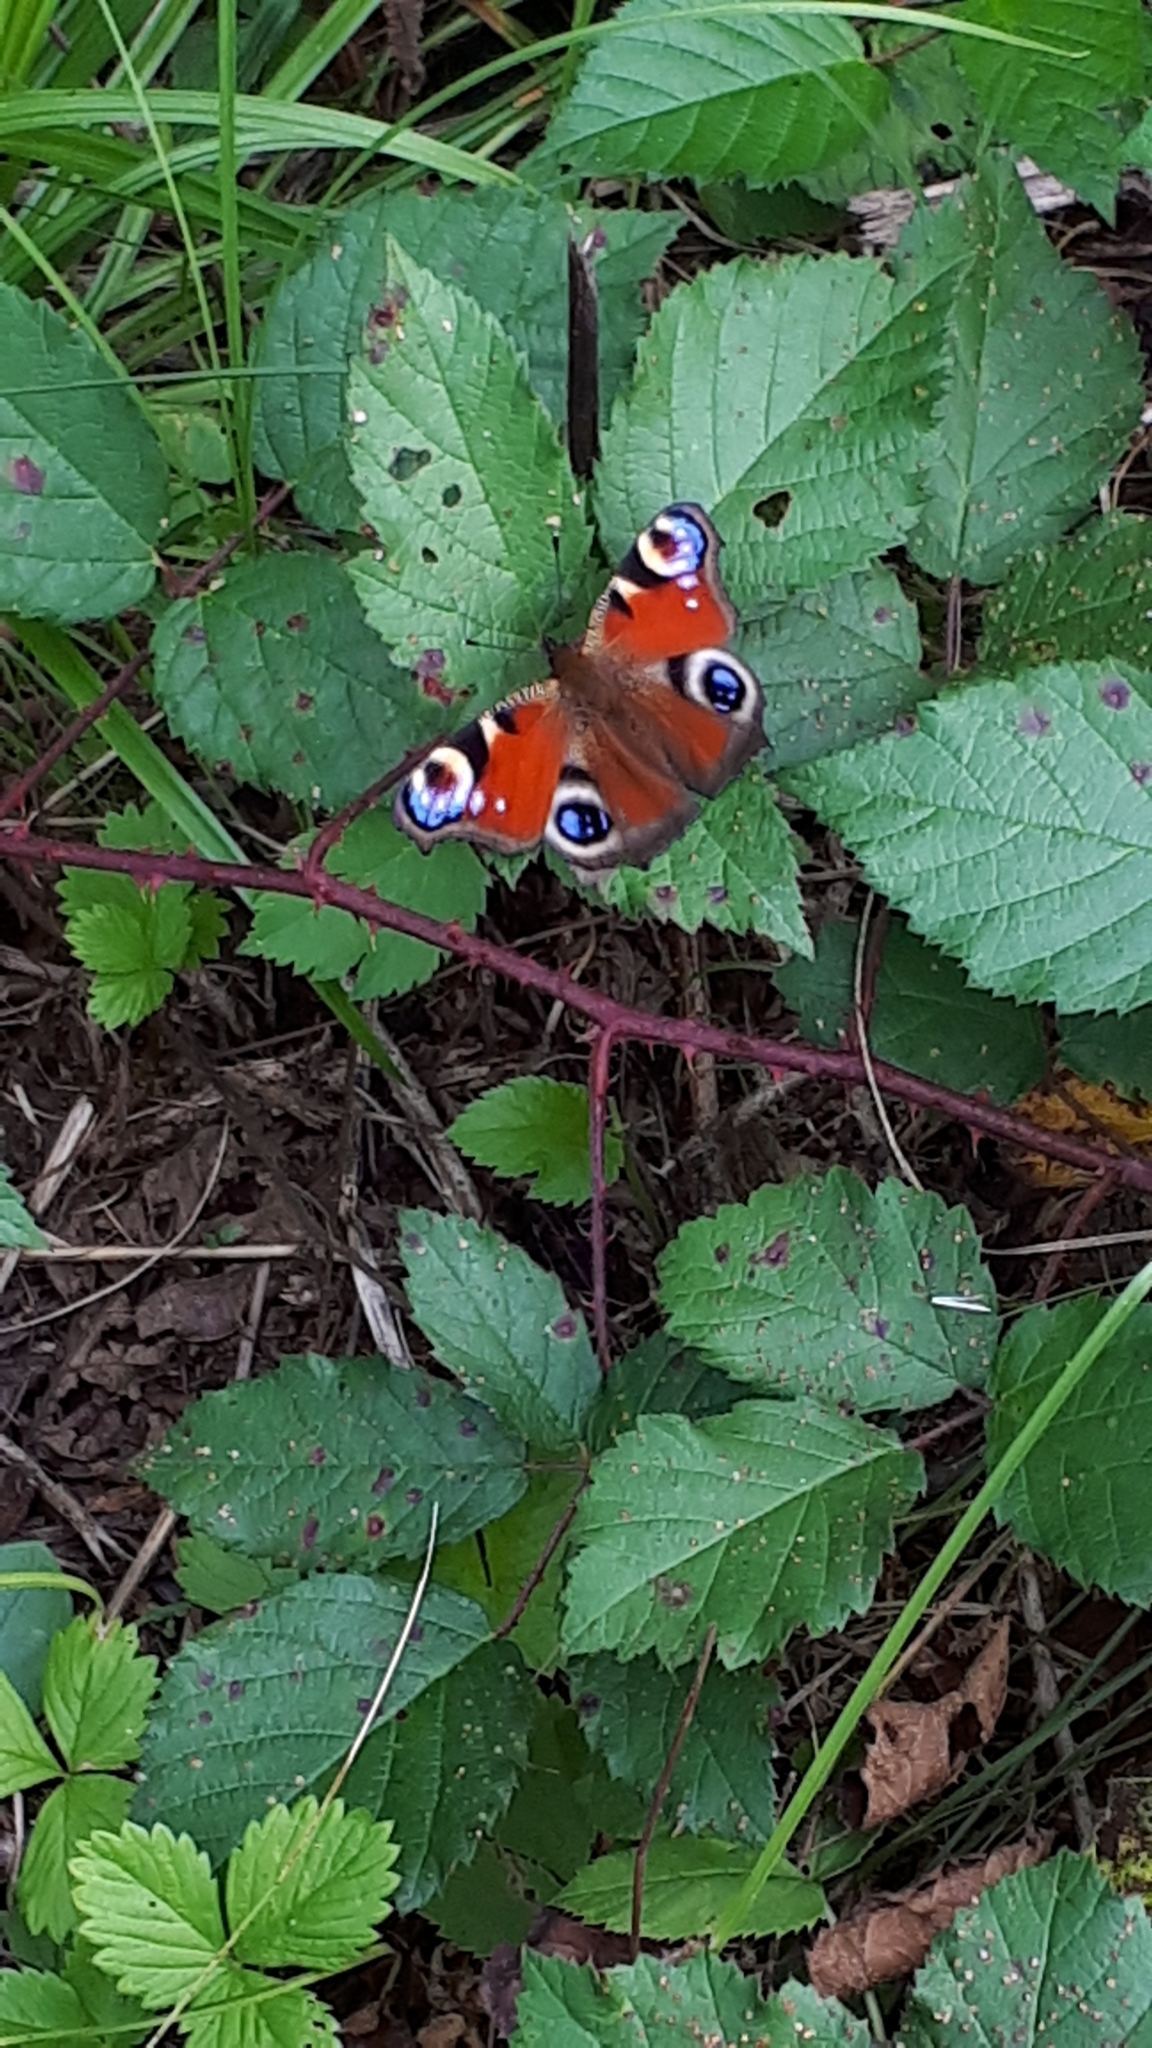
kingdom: Animalia
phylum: Arthropoda
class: Insecta
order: Lepidoptera
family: Nymphalidae
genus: Aglais
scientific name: Aglais io
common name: Peacock
